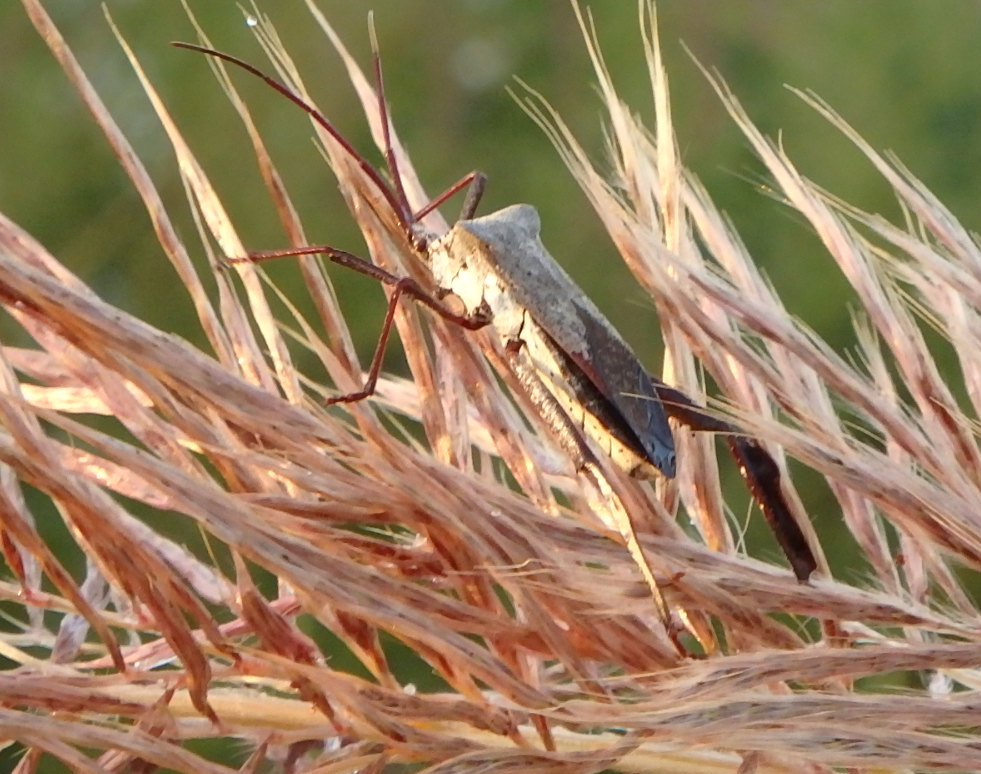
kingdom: Animalia
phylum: Arthropoda
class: Insecta
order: Hemiptera
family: Coreidae
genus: Acanthocephala
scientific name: Acanthocephala declivis
